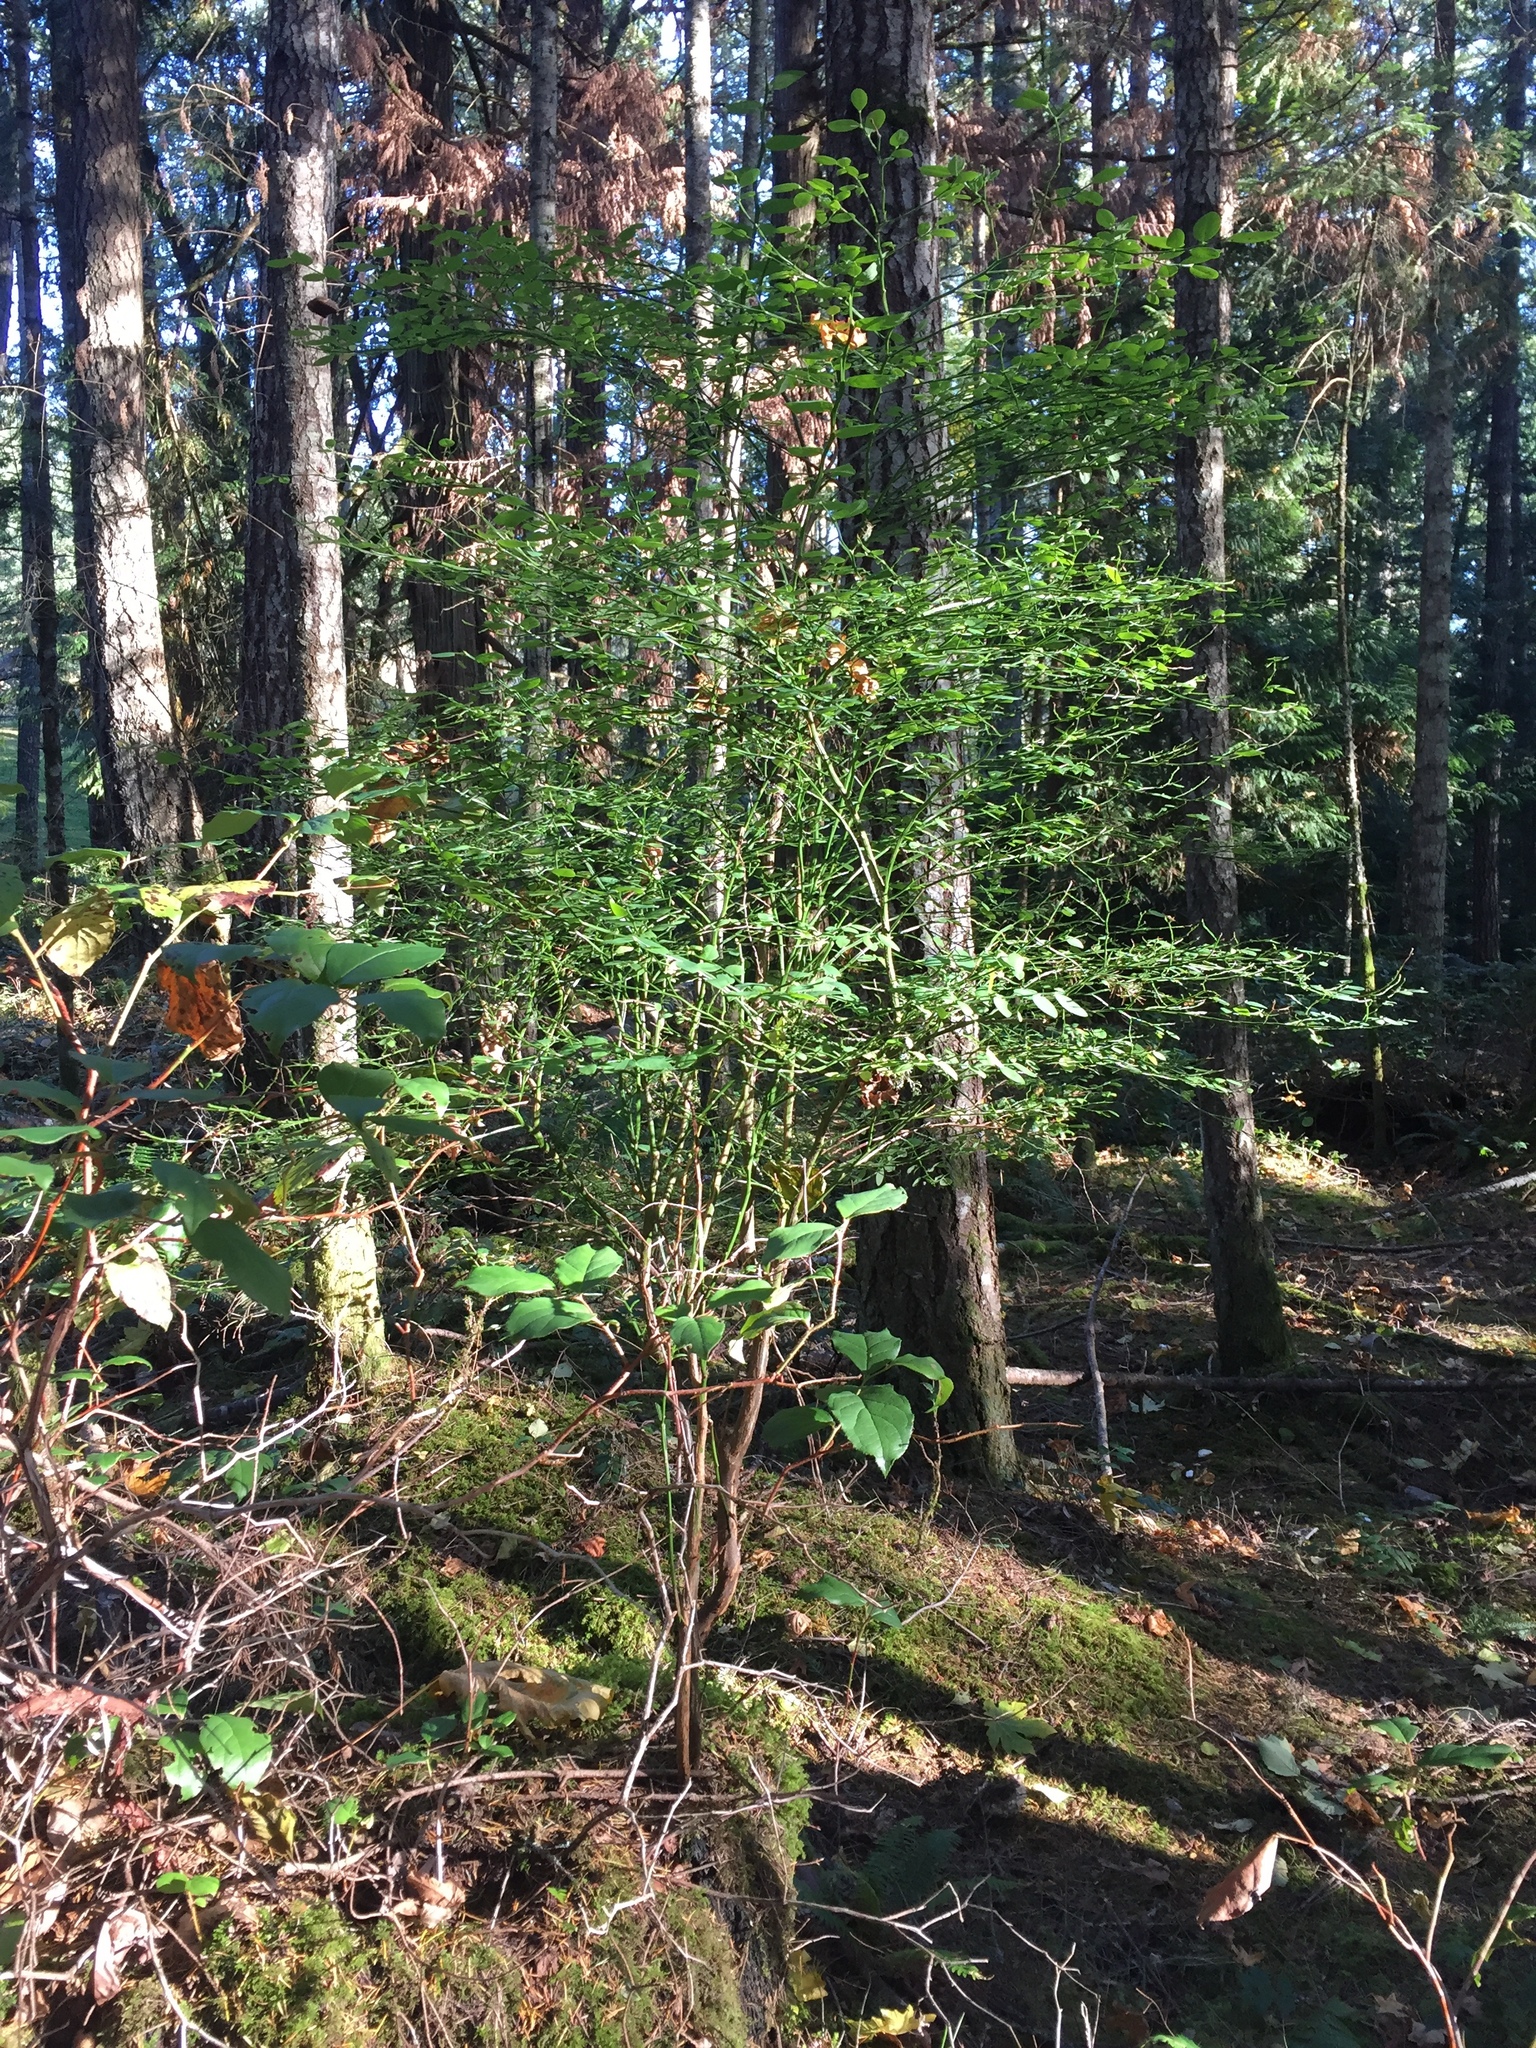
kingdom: Plantae
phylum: Tracheophyta
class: Magnoliopsida
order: Ericales
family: Ericaceae
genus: Vaccinium
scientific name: Vaccinium parvifolium
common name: Red-huckleberry
